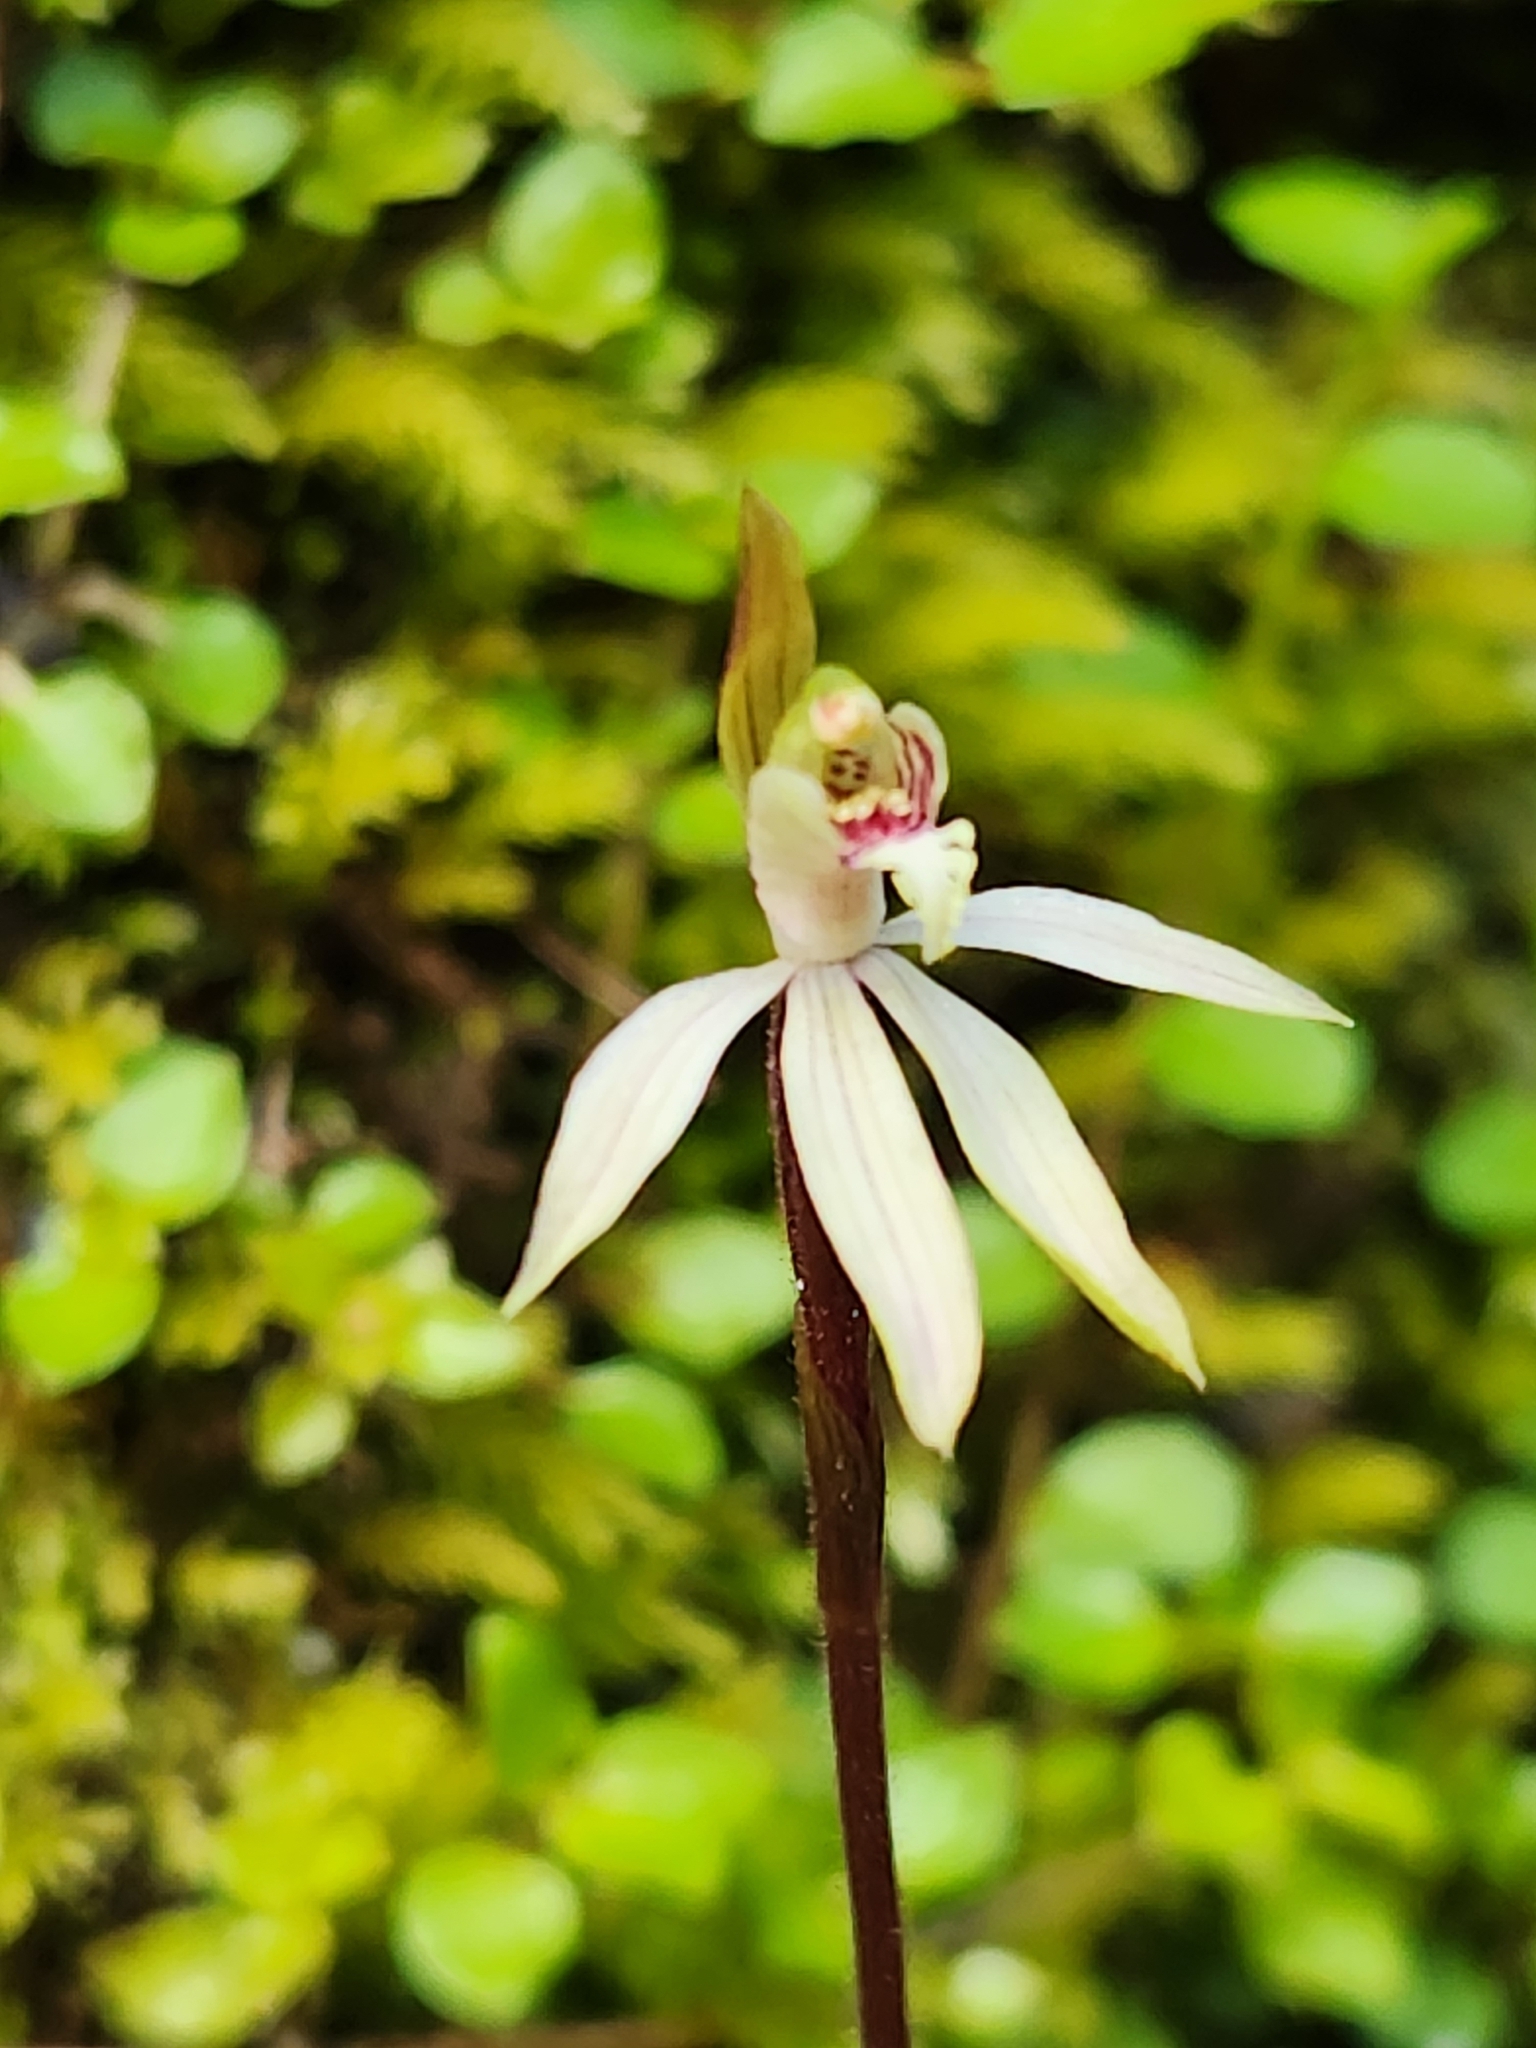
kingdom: Plantae
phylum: Tracheophyta
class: Liliopsida
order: Asparagales
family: Orchidaceae
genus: Caladenia
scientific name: Caladenia chlorostyla
